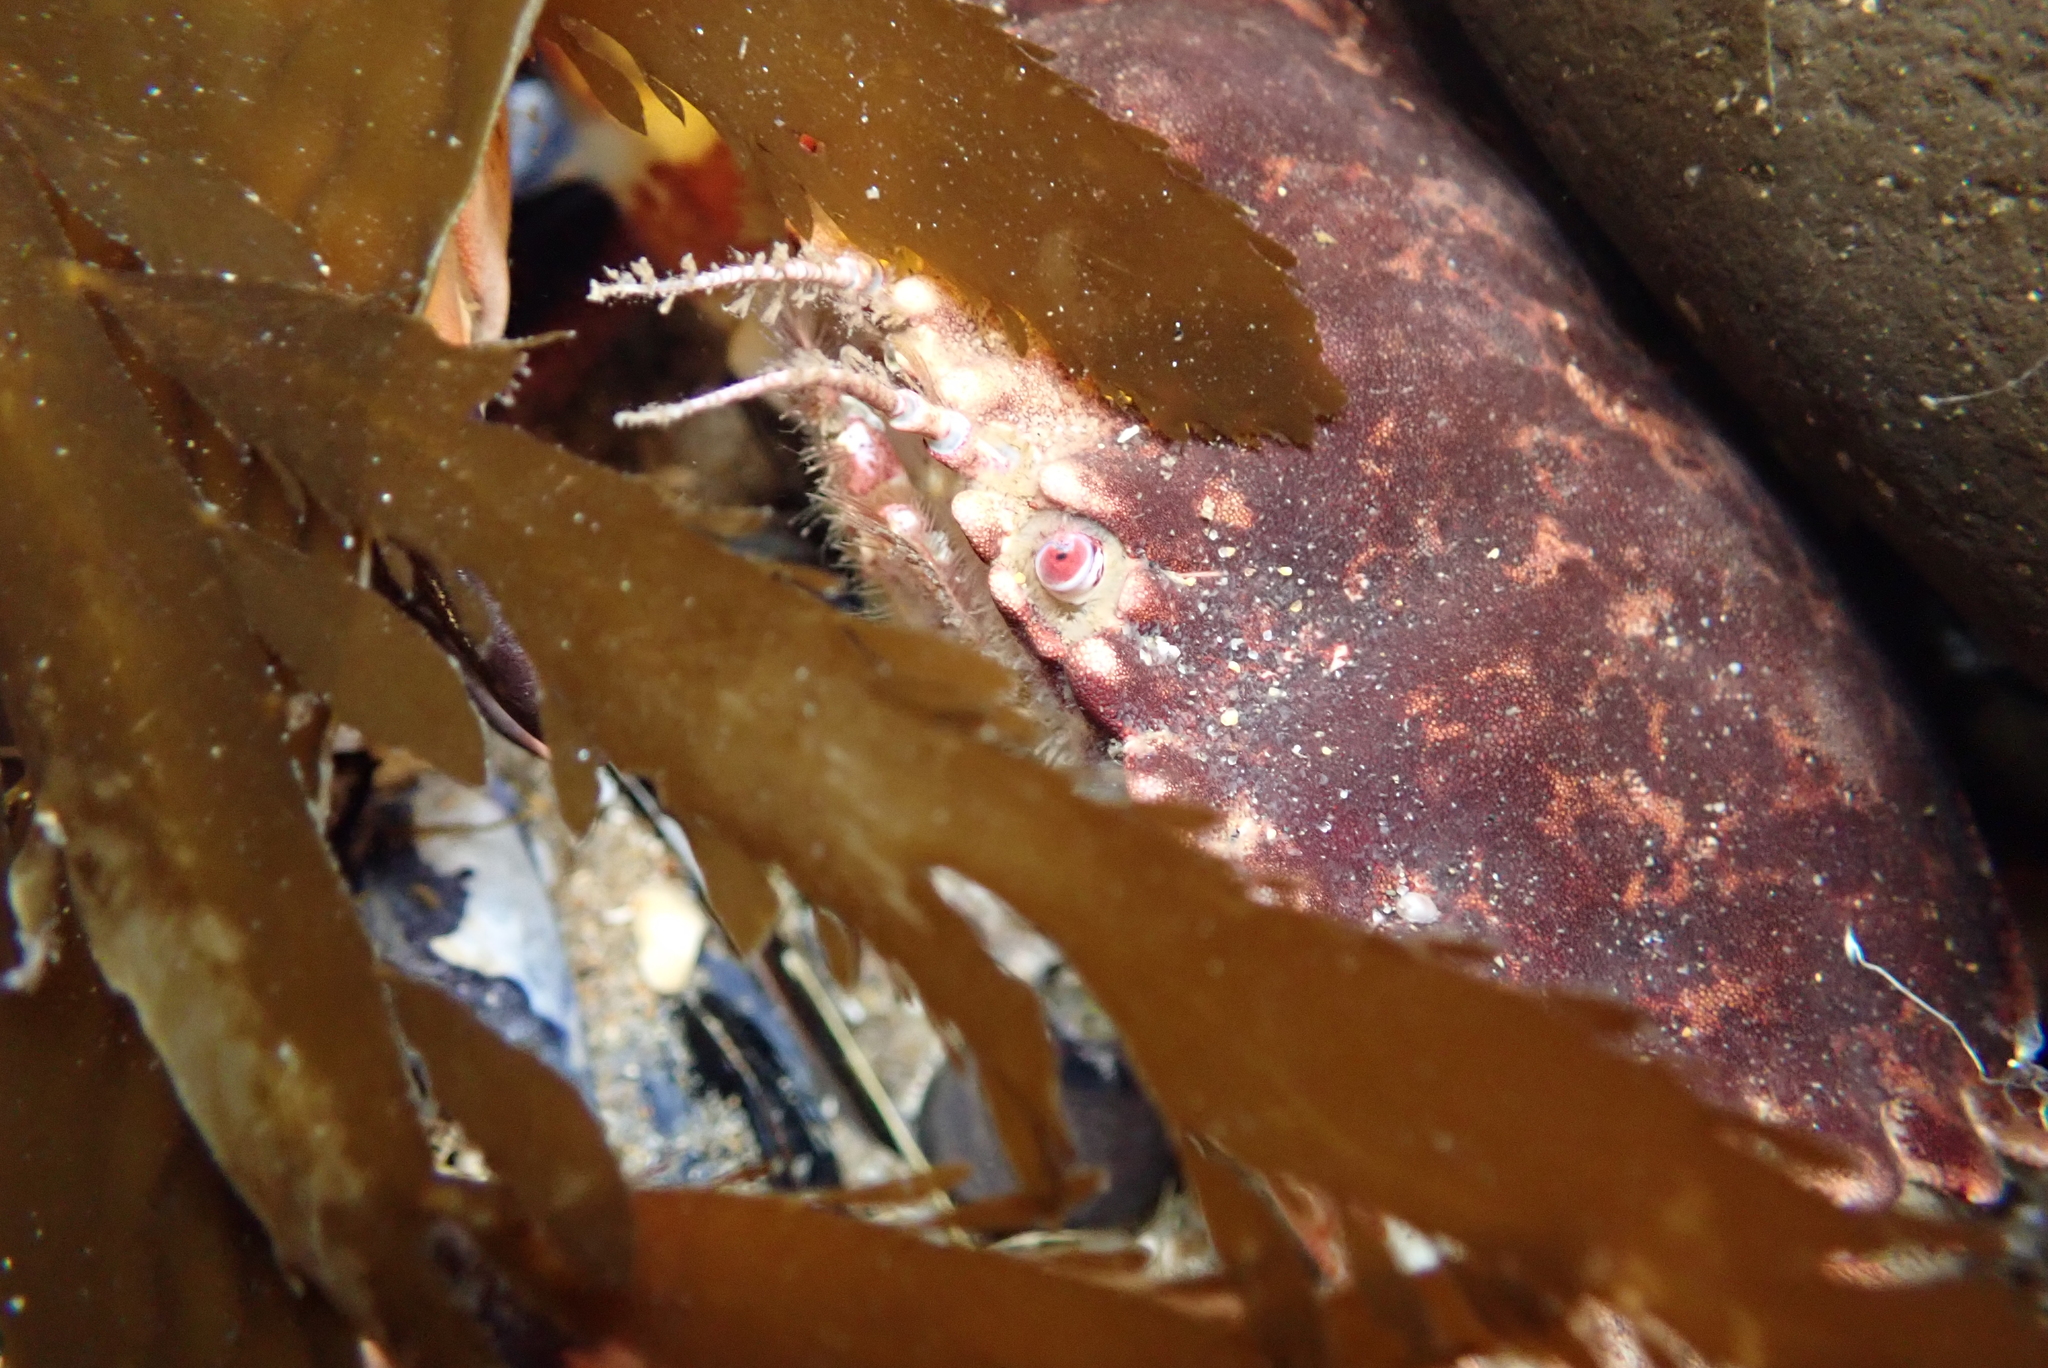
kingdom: Animalia
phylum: Arthropoda
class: Malacostraca
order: Decapoda
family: Cancridae
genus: Romaleon
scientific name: Romaleon antennarium
